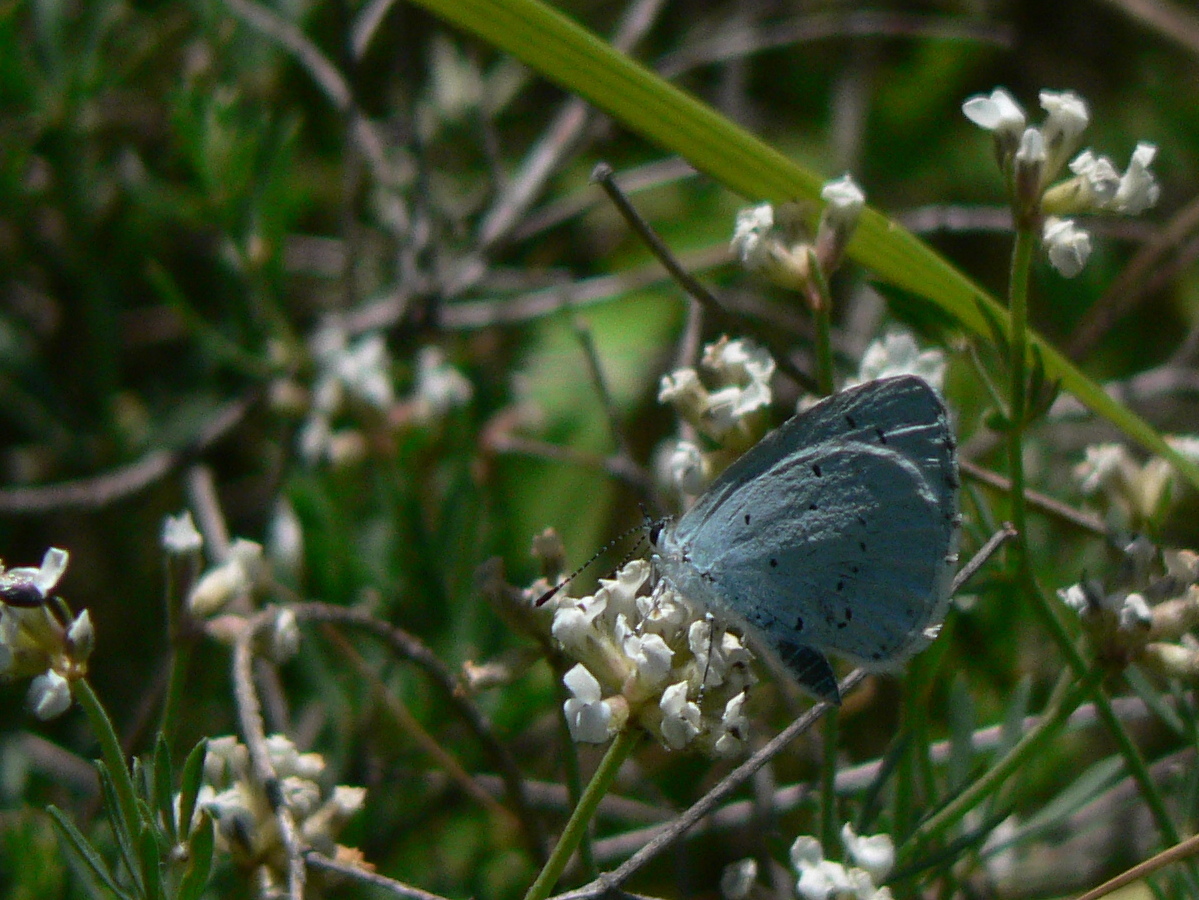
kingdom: Animalia
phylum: Arthropoda
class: Insecta
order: Lepidoptera
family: Lycaenidae
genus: Celastrina
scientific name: Celastrina argiolus
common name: Holly blue
